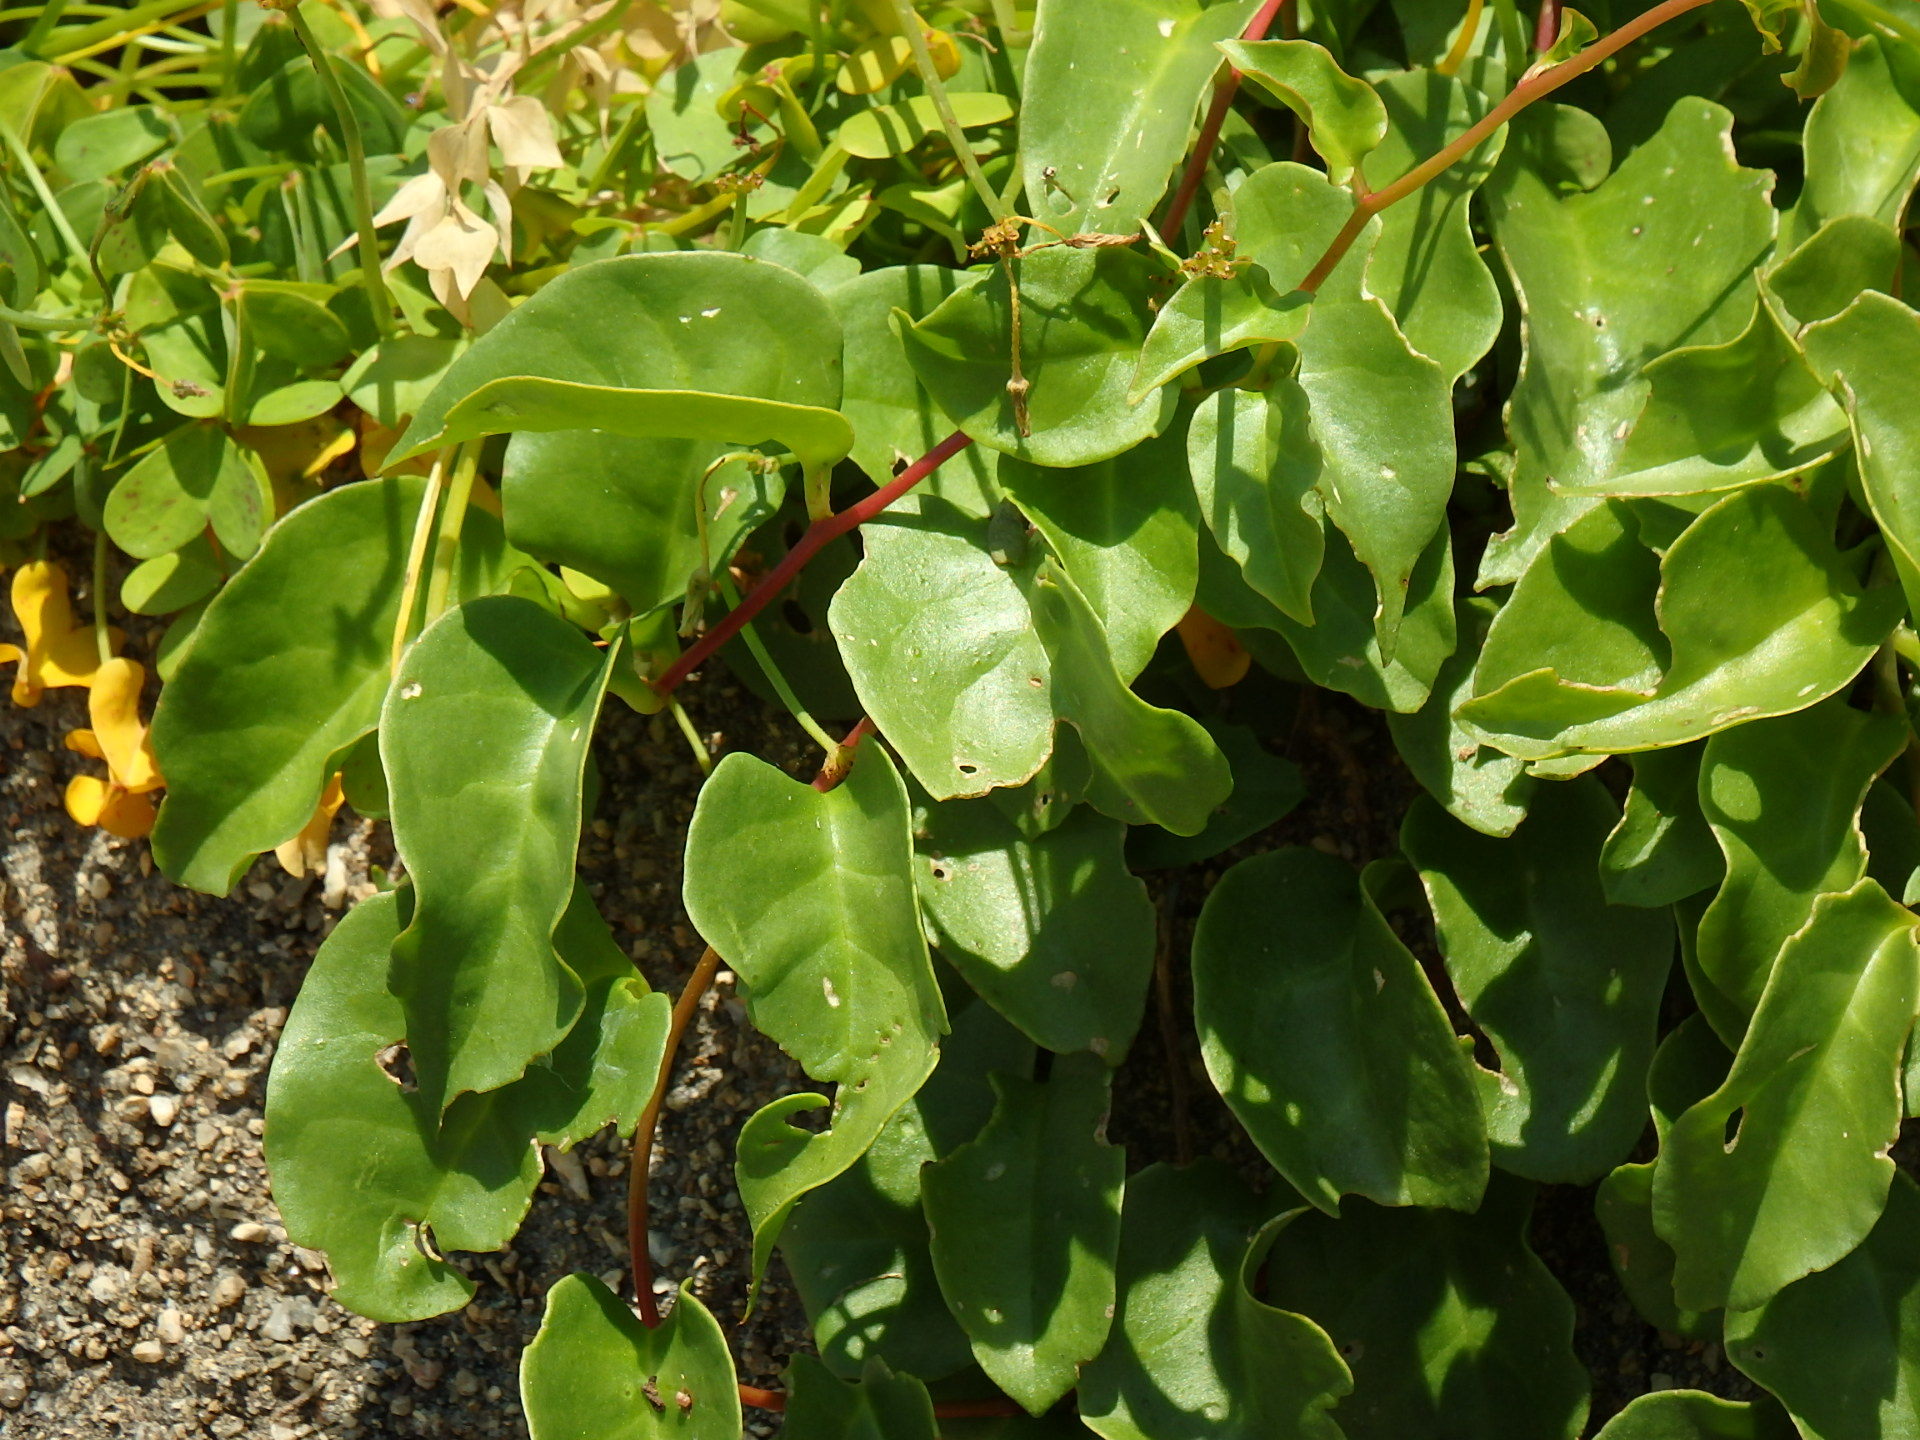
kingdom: Plantae
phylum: Tracheophyta
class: Magnoliopsida
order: Caryophyllales
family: Basellaceae
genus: Anredera
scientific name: Anredera cordifolia
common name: Heartleaf madeiravine
